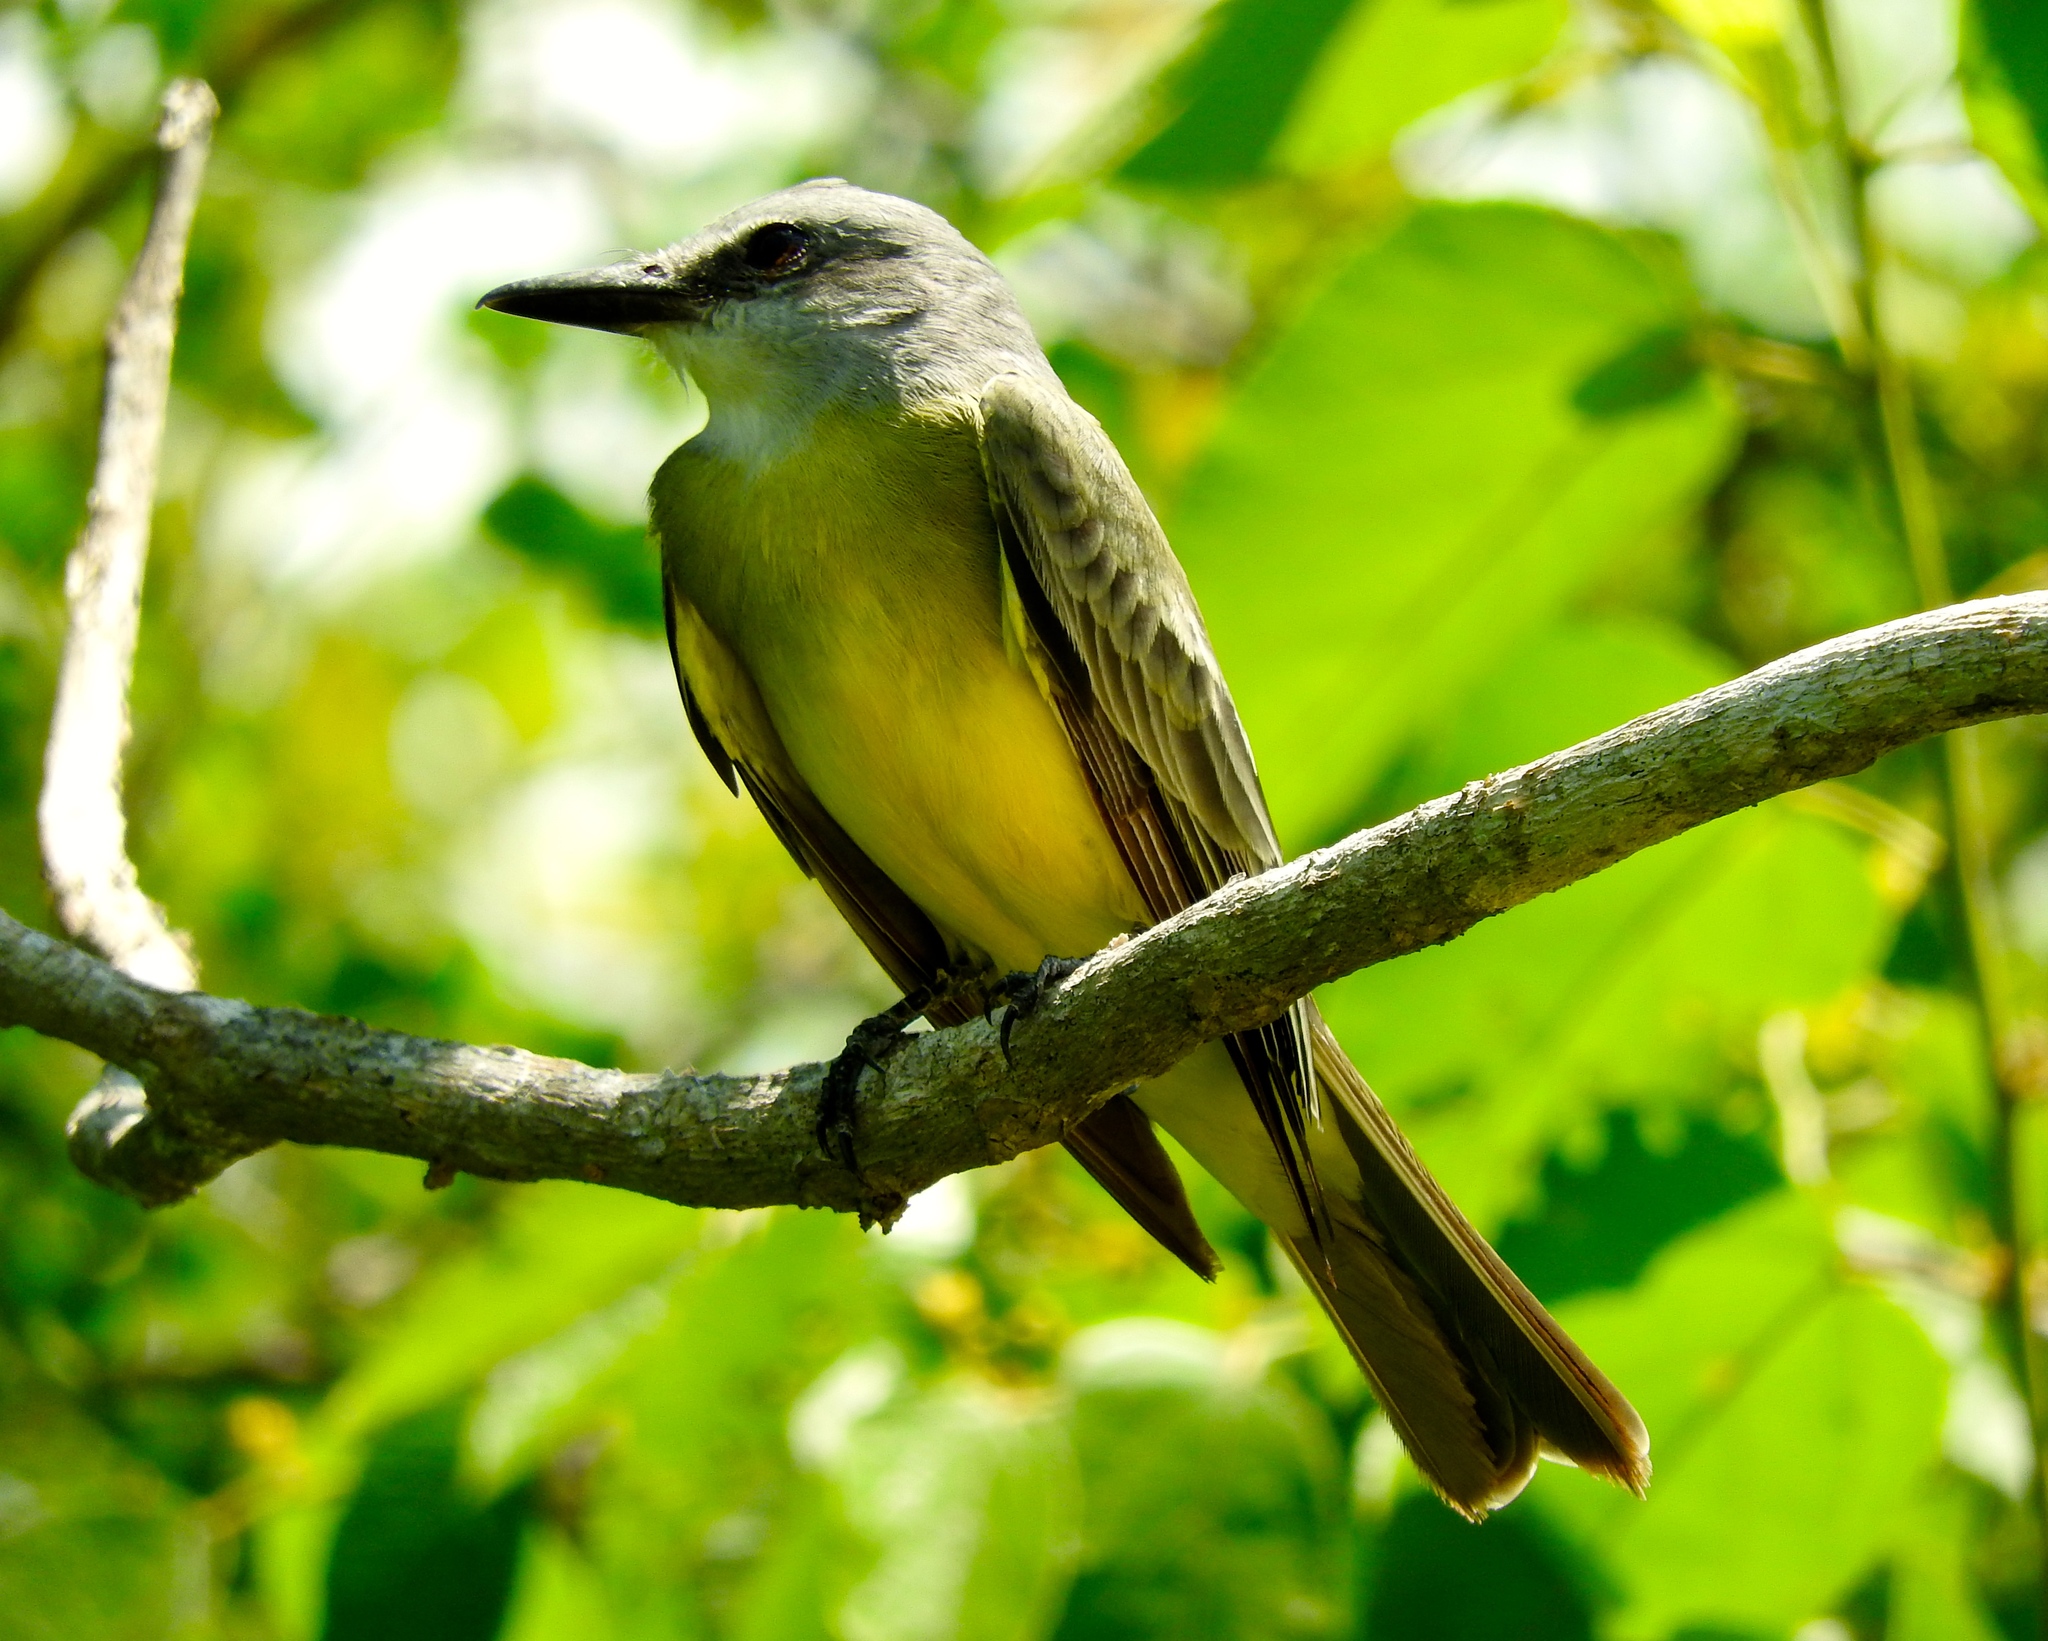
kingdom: Animalia
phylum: Chordata
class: Aves
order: Passeriformes
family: Tyrannidae
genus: Tyrannus
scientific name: Tyrannus melancholicus
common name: Tropical kingbird
